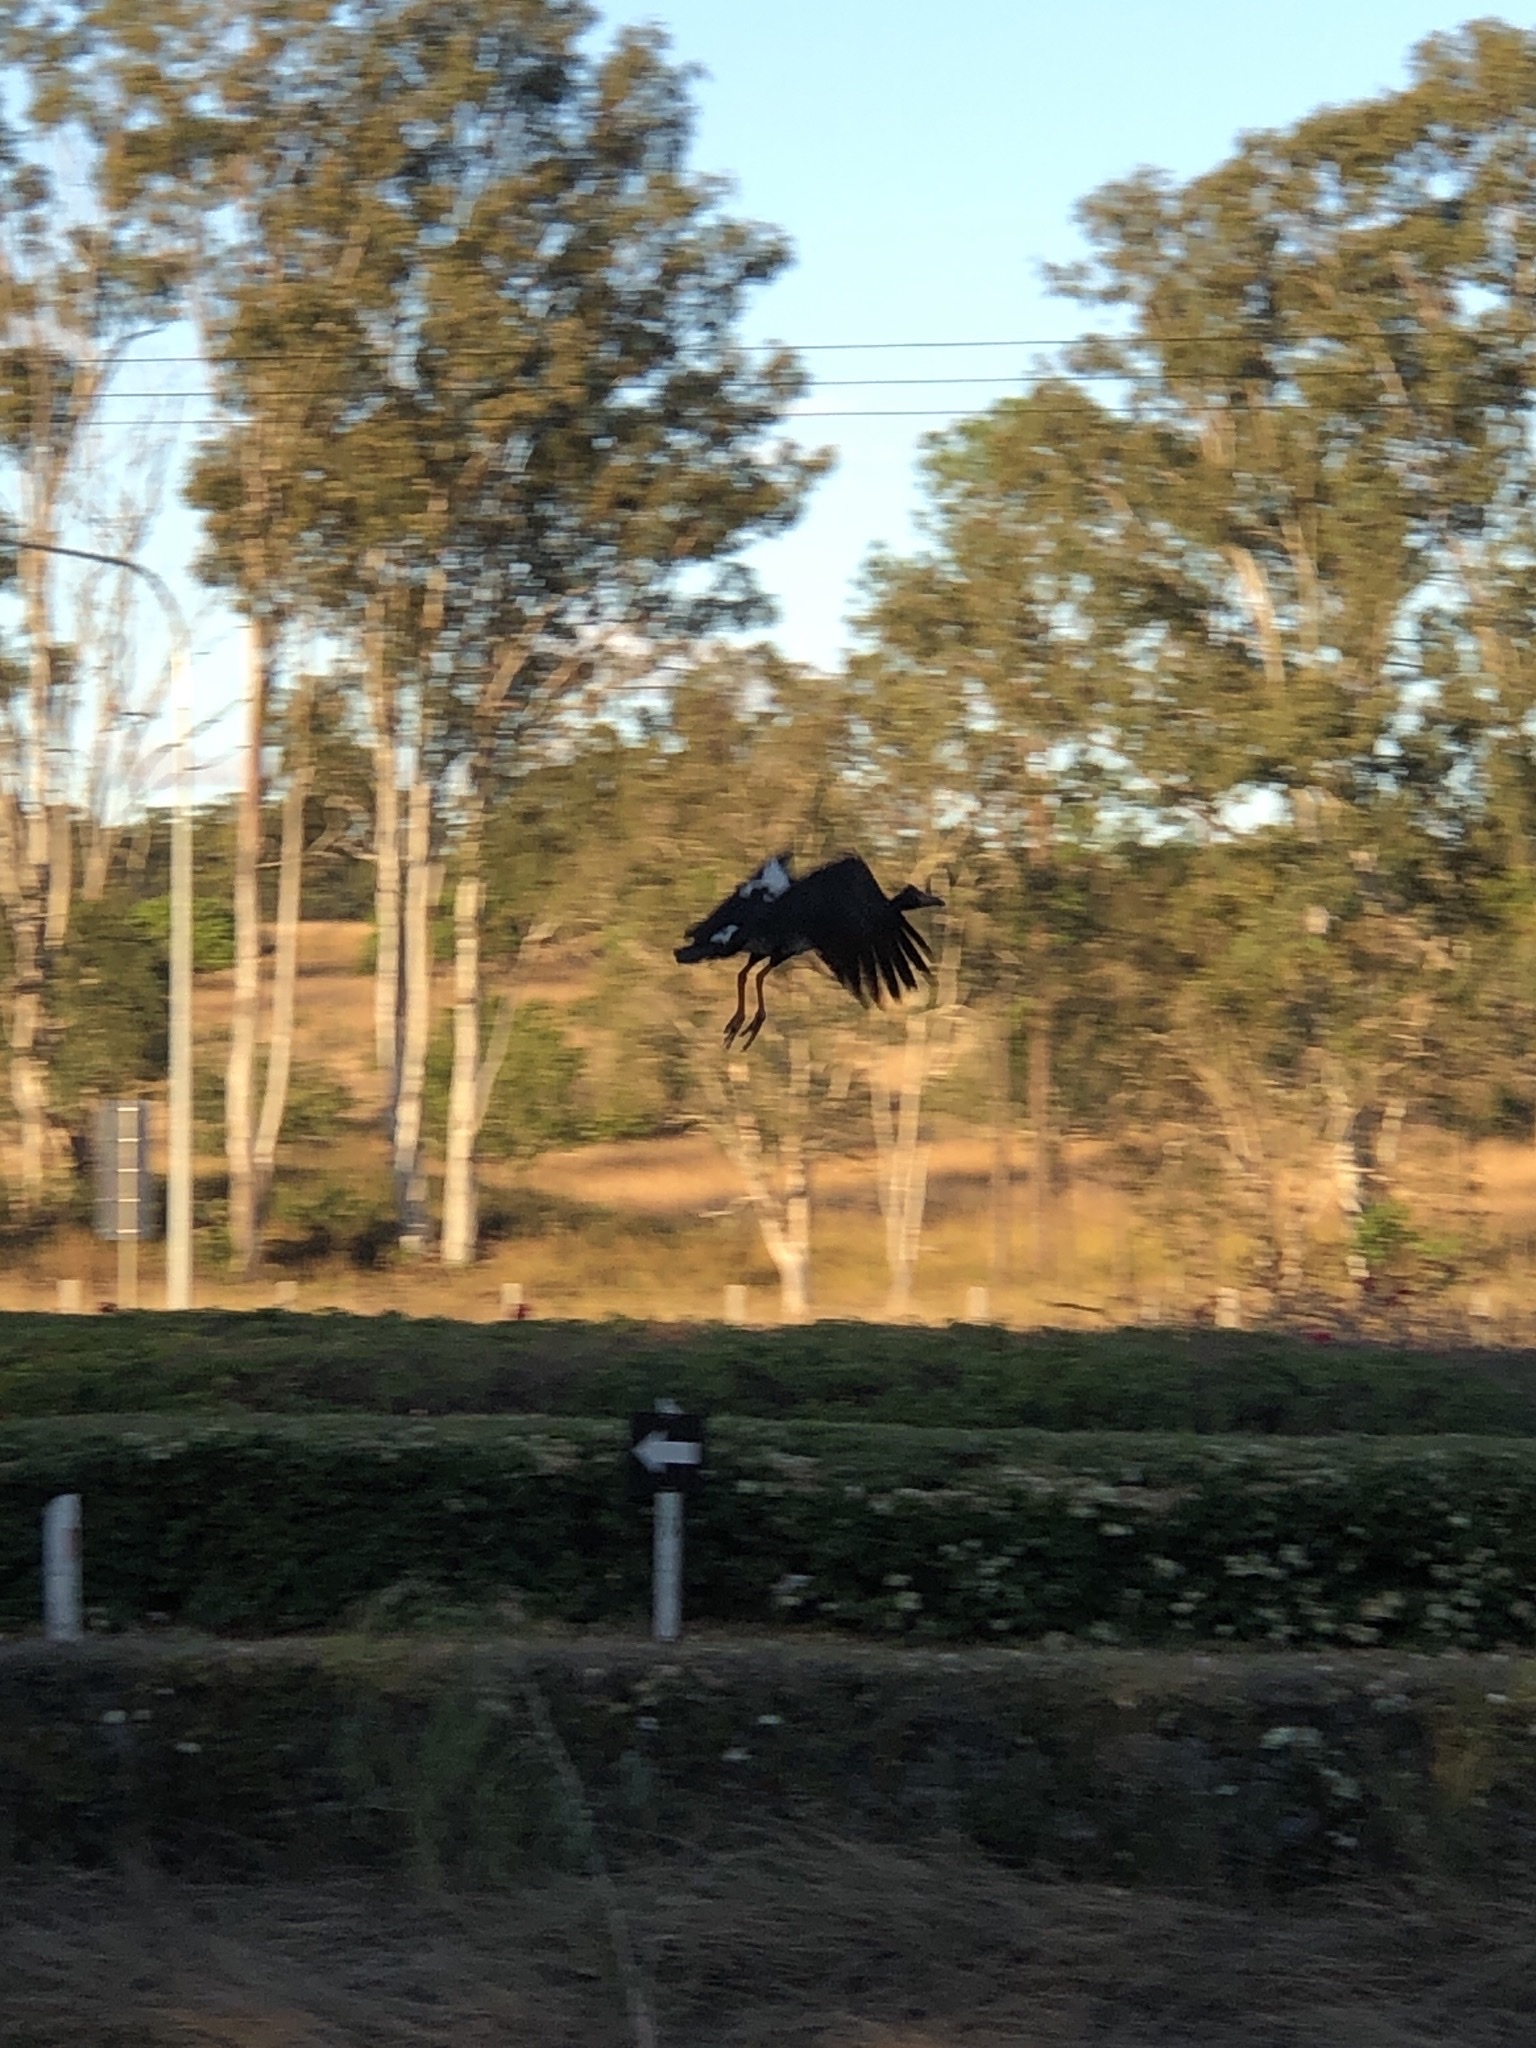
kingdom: Animalia
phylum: Chordata
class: Aves
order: Anseriformes
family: Anseranatidae
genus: Anseranas
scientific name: Anseranas semipalmata
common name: Magpie goose
